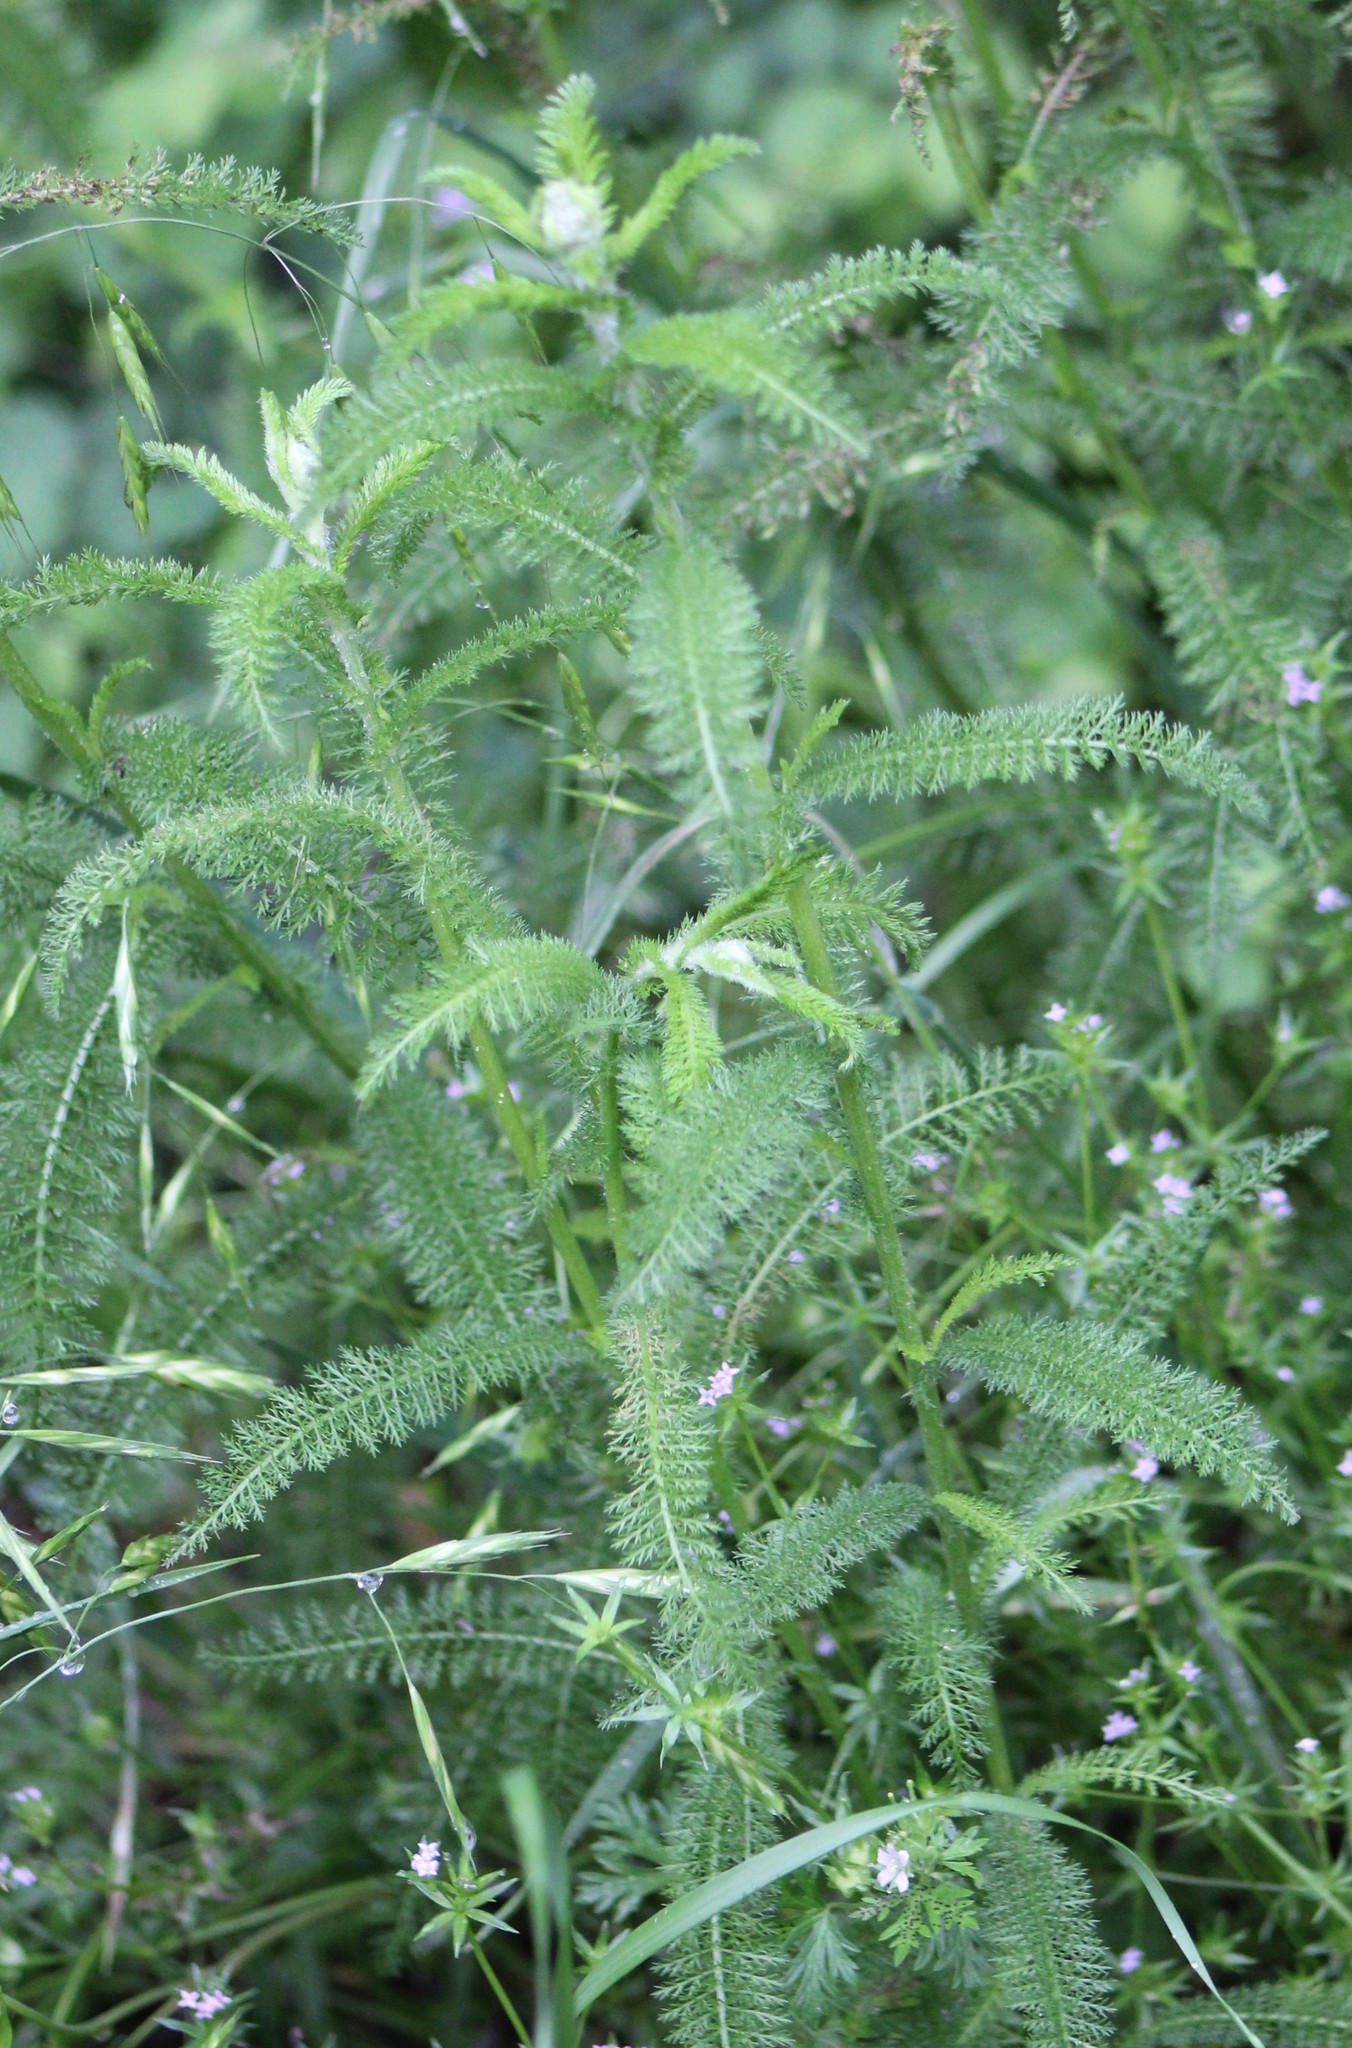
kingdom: Plantae
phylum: Tracheophyta
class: Magnoliopsida
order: Asterales
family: Asteraceae
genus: Achillea
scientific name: Achillea millefolium
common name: Yarrow
